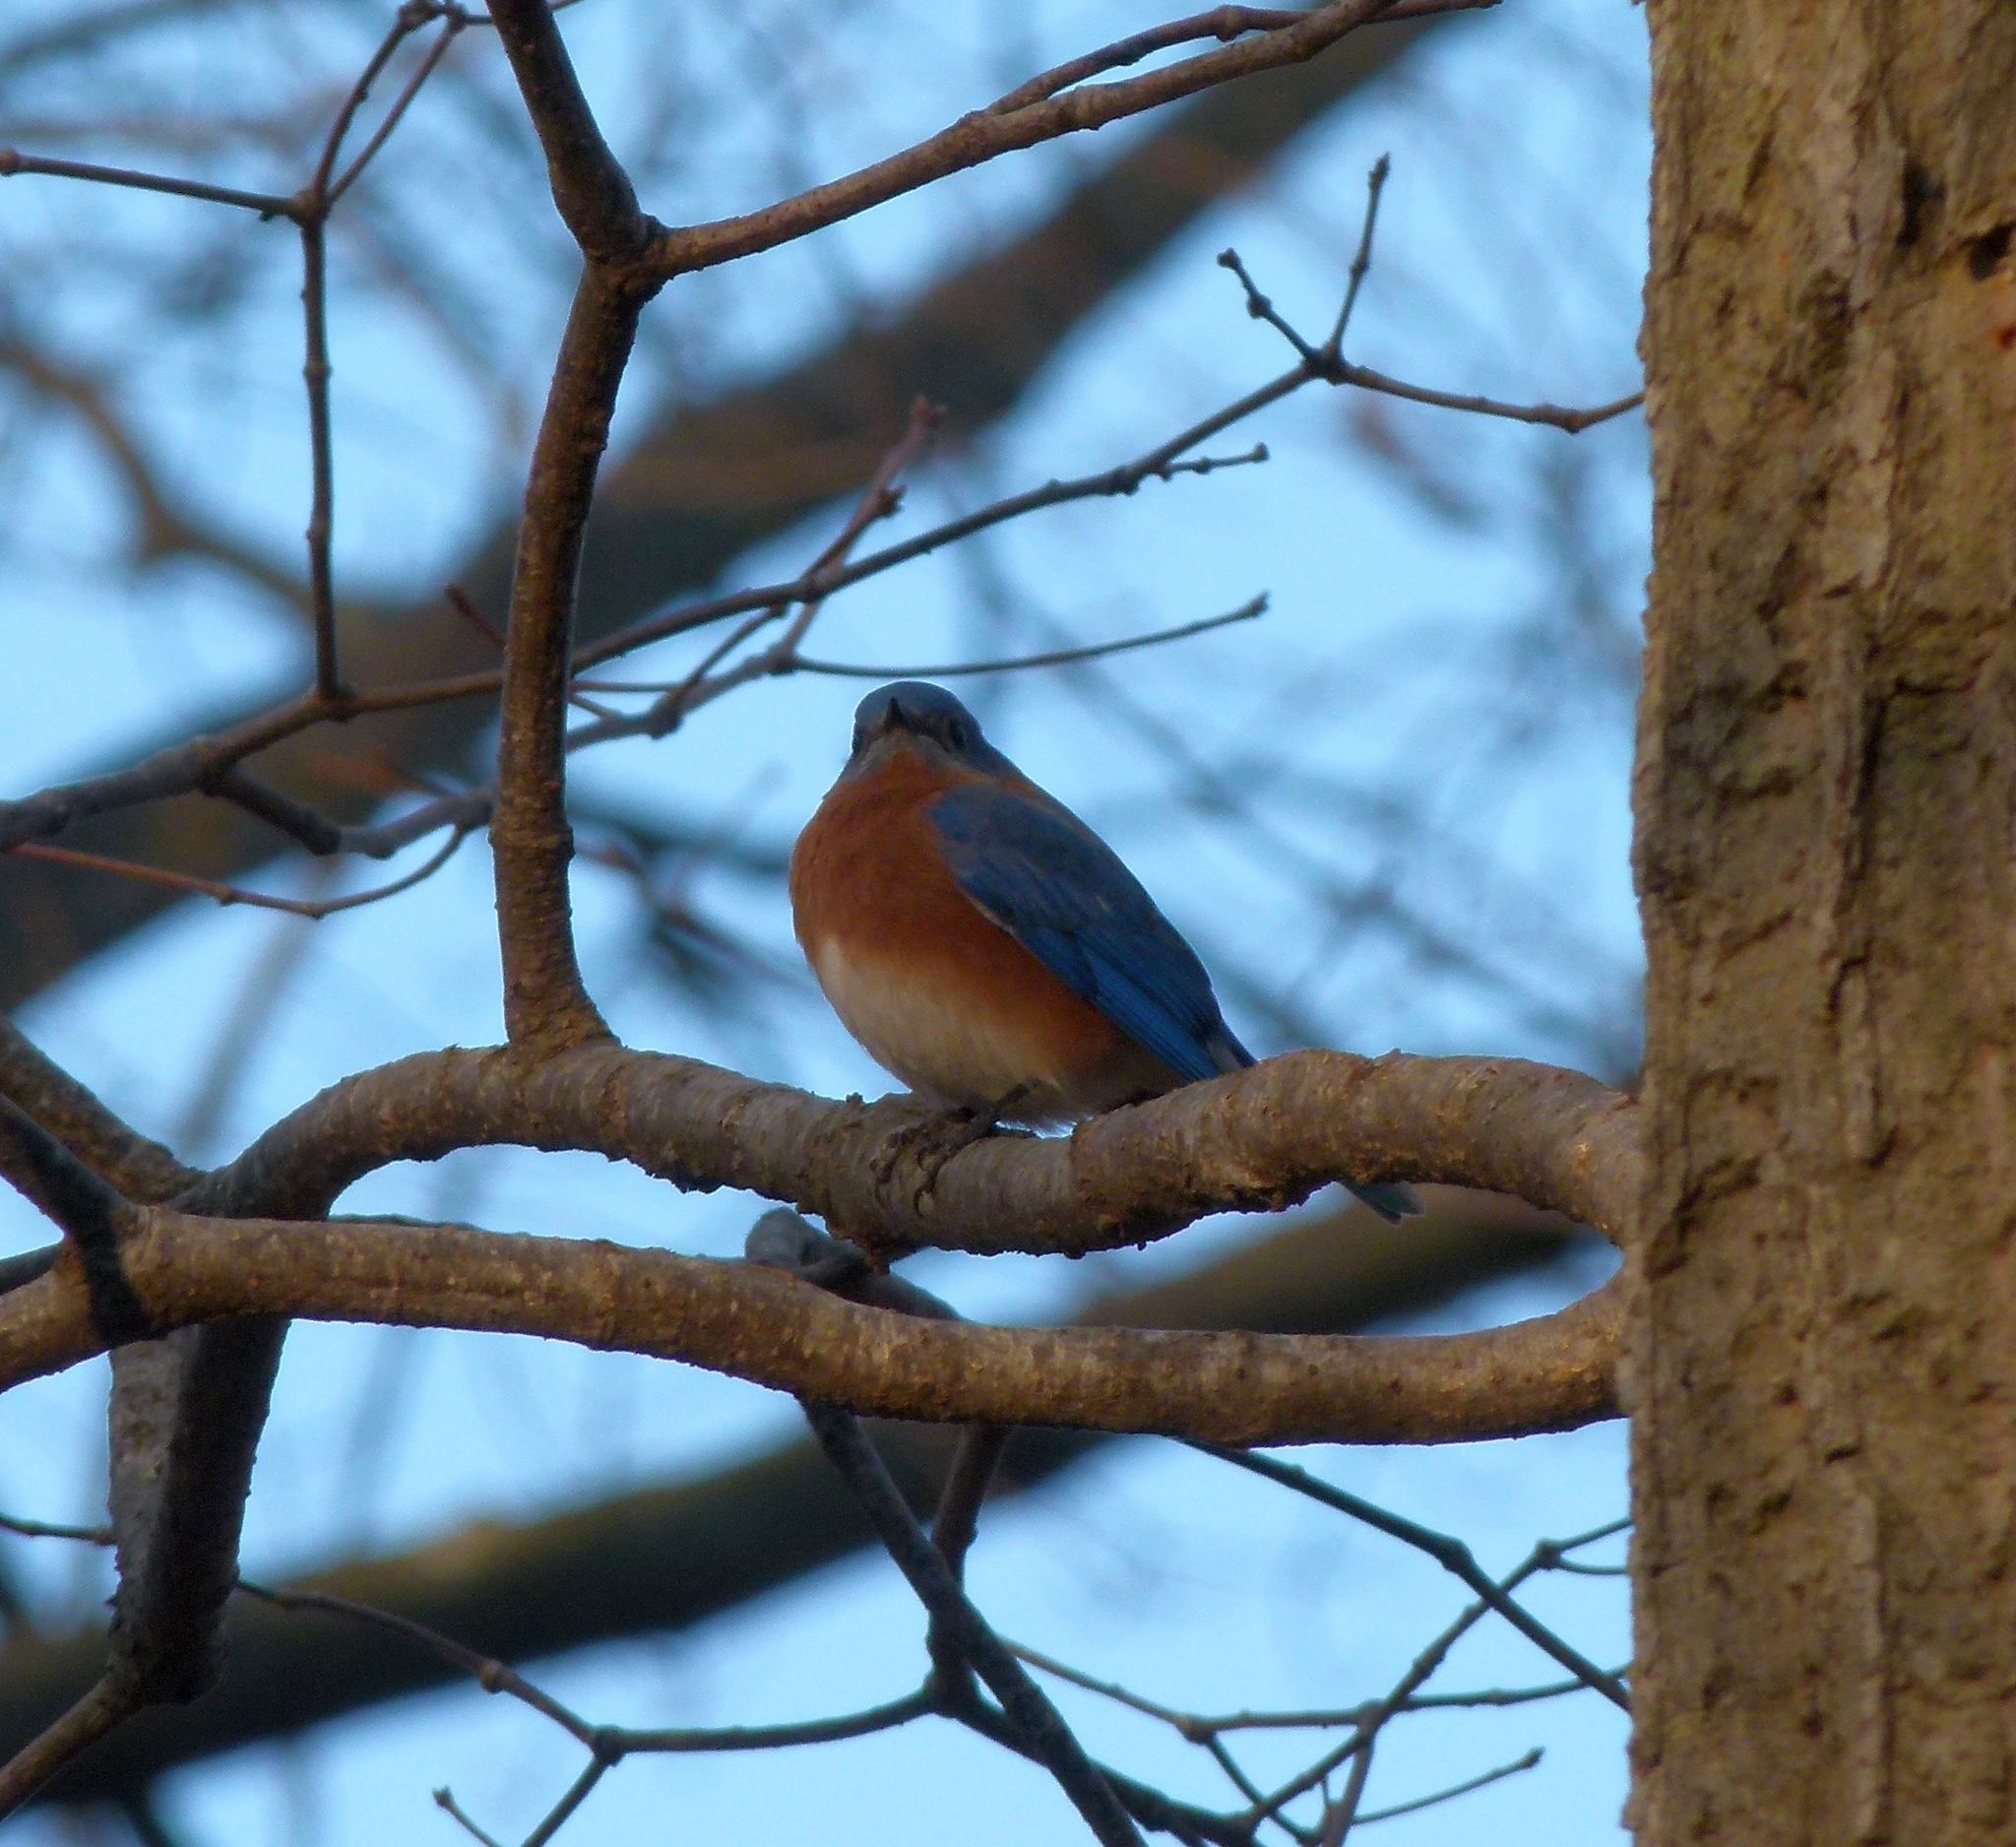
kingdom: Animalia
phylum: Chordata
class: Aves
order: Passeriformes
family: Turdidae
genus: Sialia
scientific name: Sialia sialis
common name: Eastern bluebird
